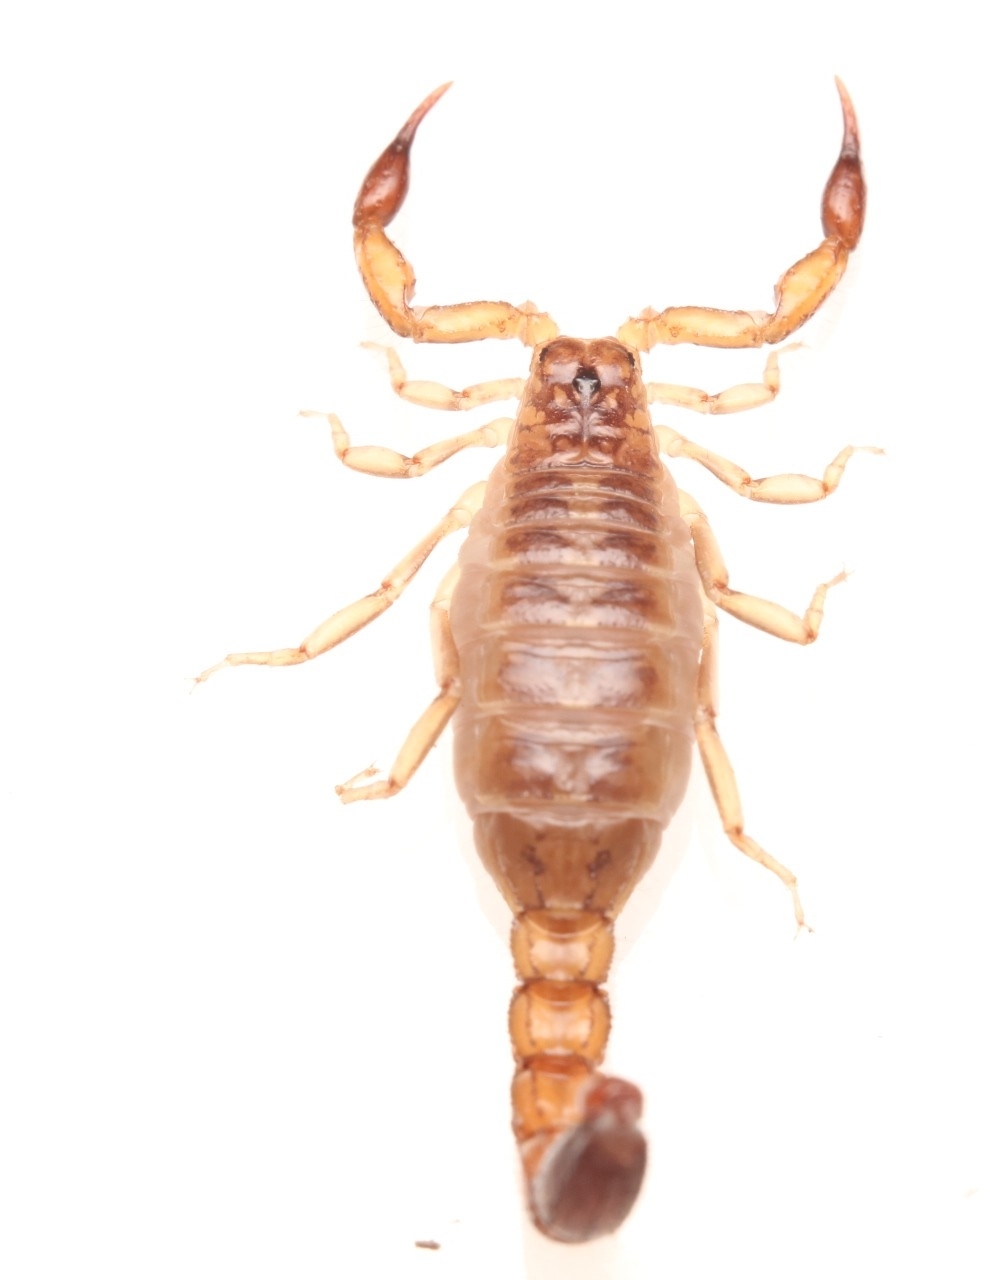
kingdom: Animalia
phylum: Arthropoda
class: Arachnida
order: Scorpiones
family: Vaejovidae
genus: Maaykuyak
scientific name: Maaykuyak waueri
